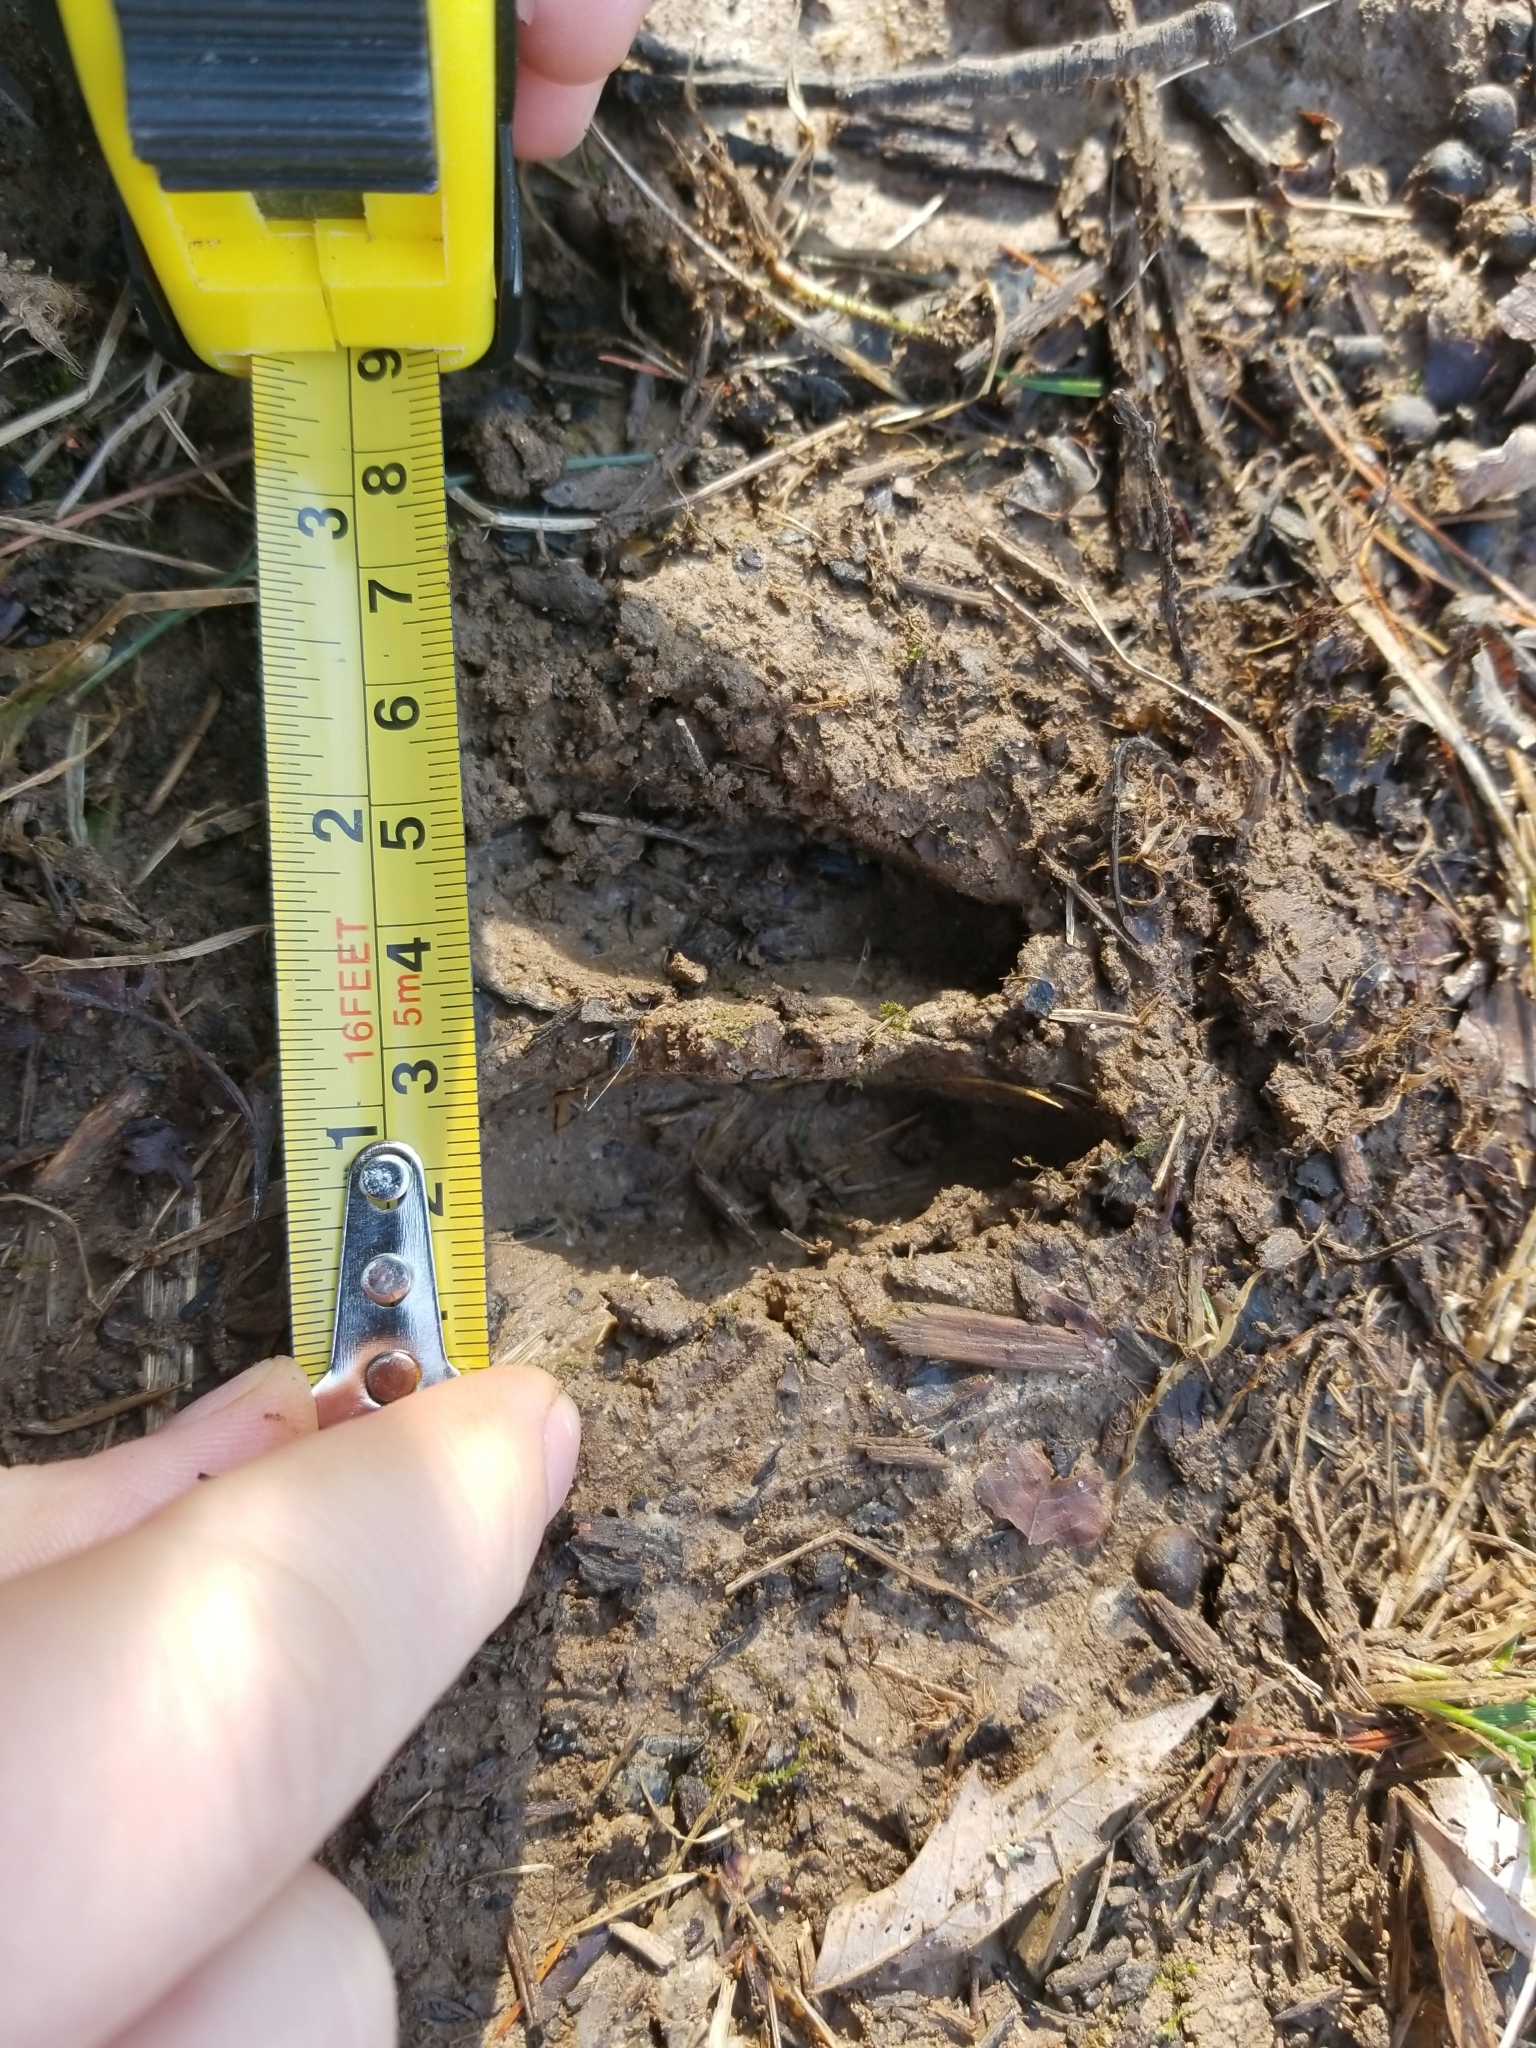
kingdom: Animalia
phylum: Chordata
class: Mammalia
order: Artiodactyla
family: Cervidae
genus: Odocoileus
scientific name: Odocoileus virginianus
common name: White-tailed deer
